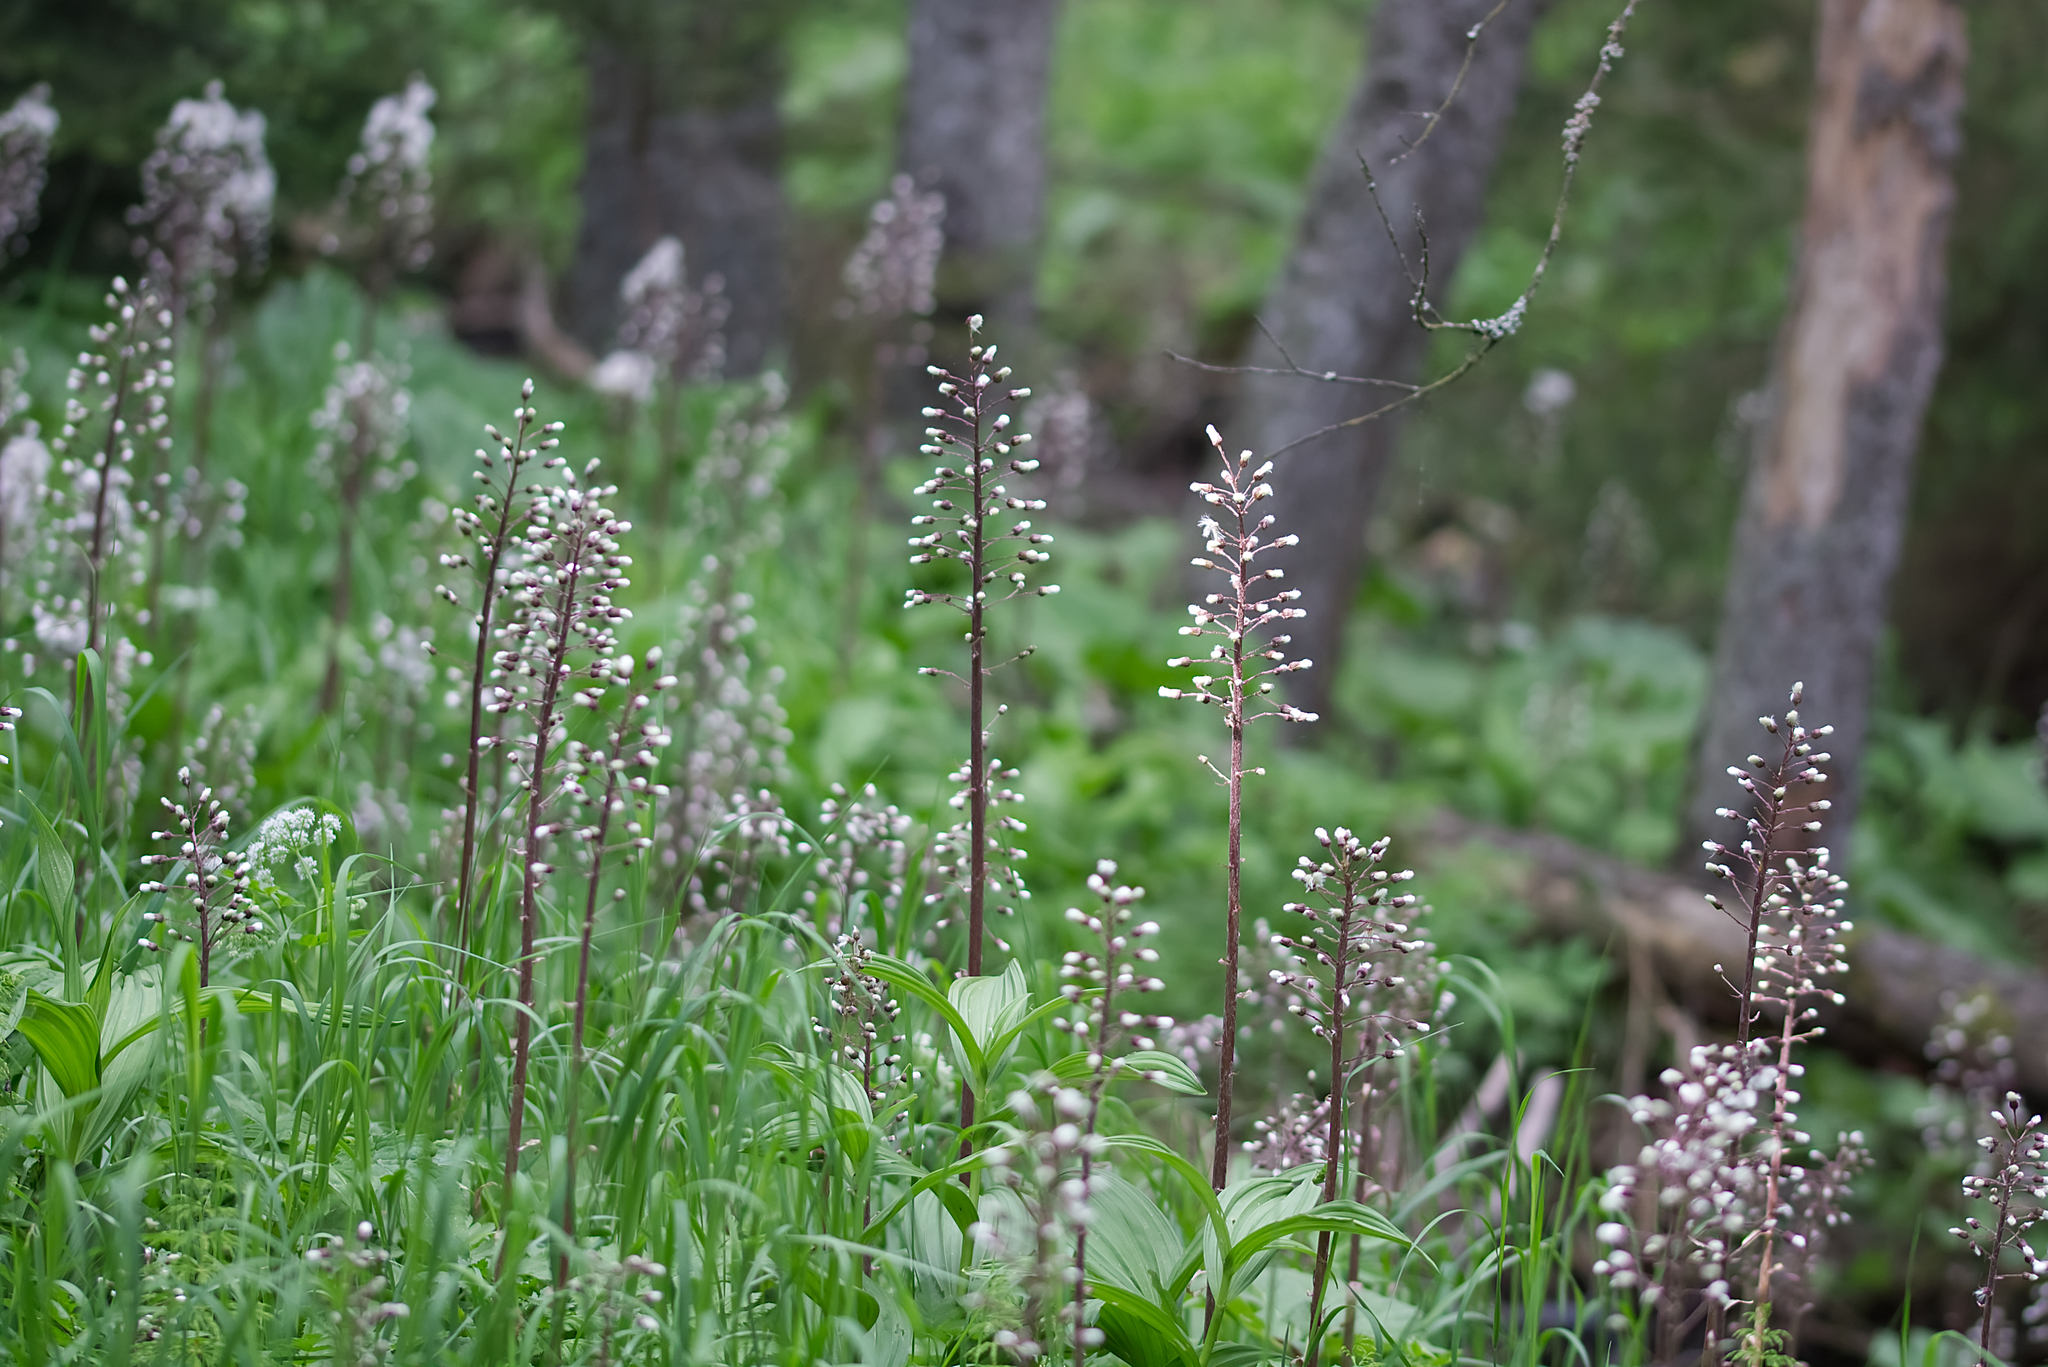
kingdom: Plantae
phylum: Tracheophyta
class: Magnoliopsida
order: Asterales
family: Asteraceae
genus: Petasites
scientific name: Petasites hybridus
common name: Butterbur
